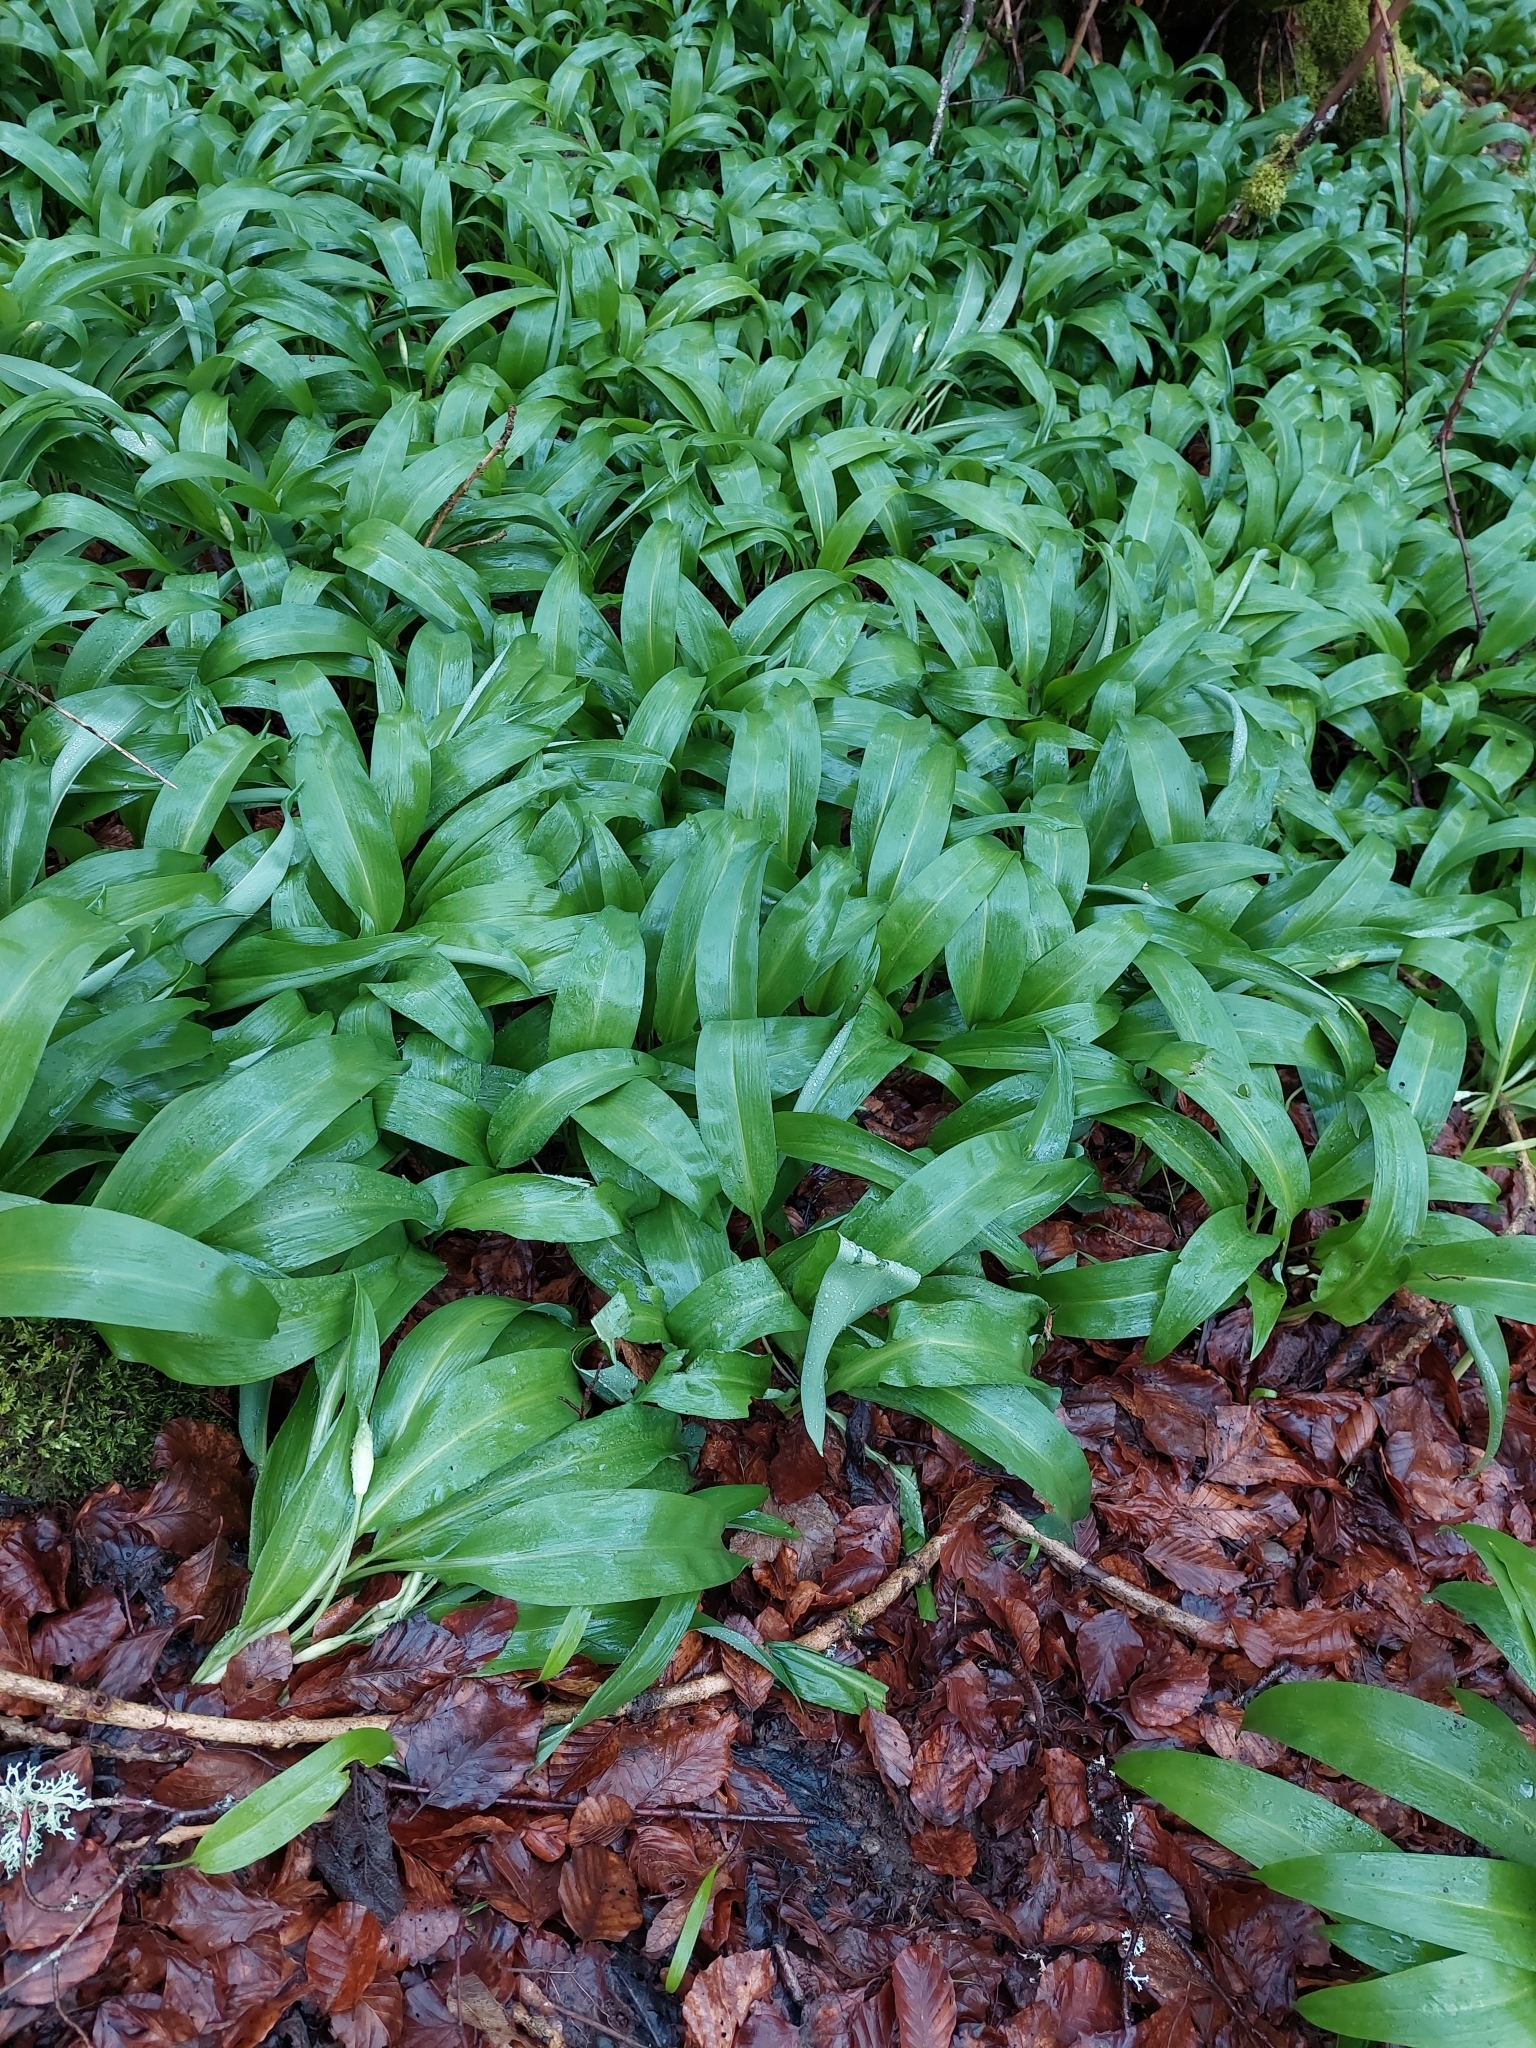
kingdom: Plantae
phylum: Tracheophyta
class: Liliopsida
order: Asparagales
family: Amaryllidaceae
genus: Allium
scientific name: Allium ursinum
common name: Ramsons
